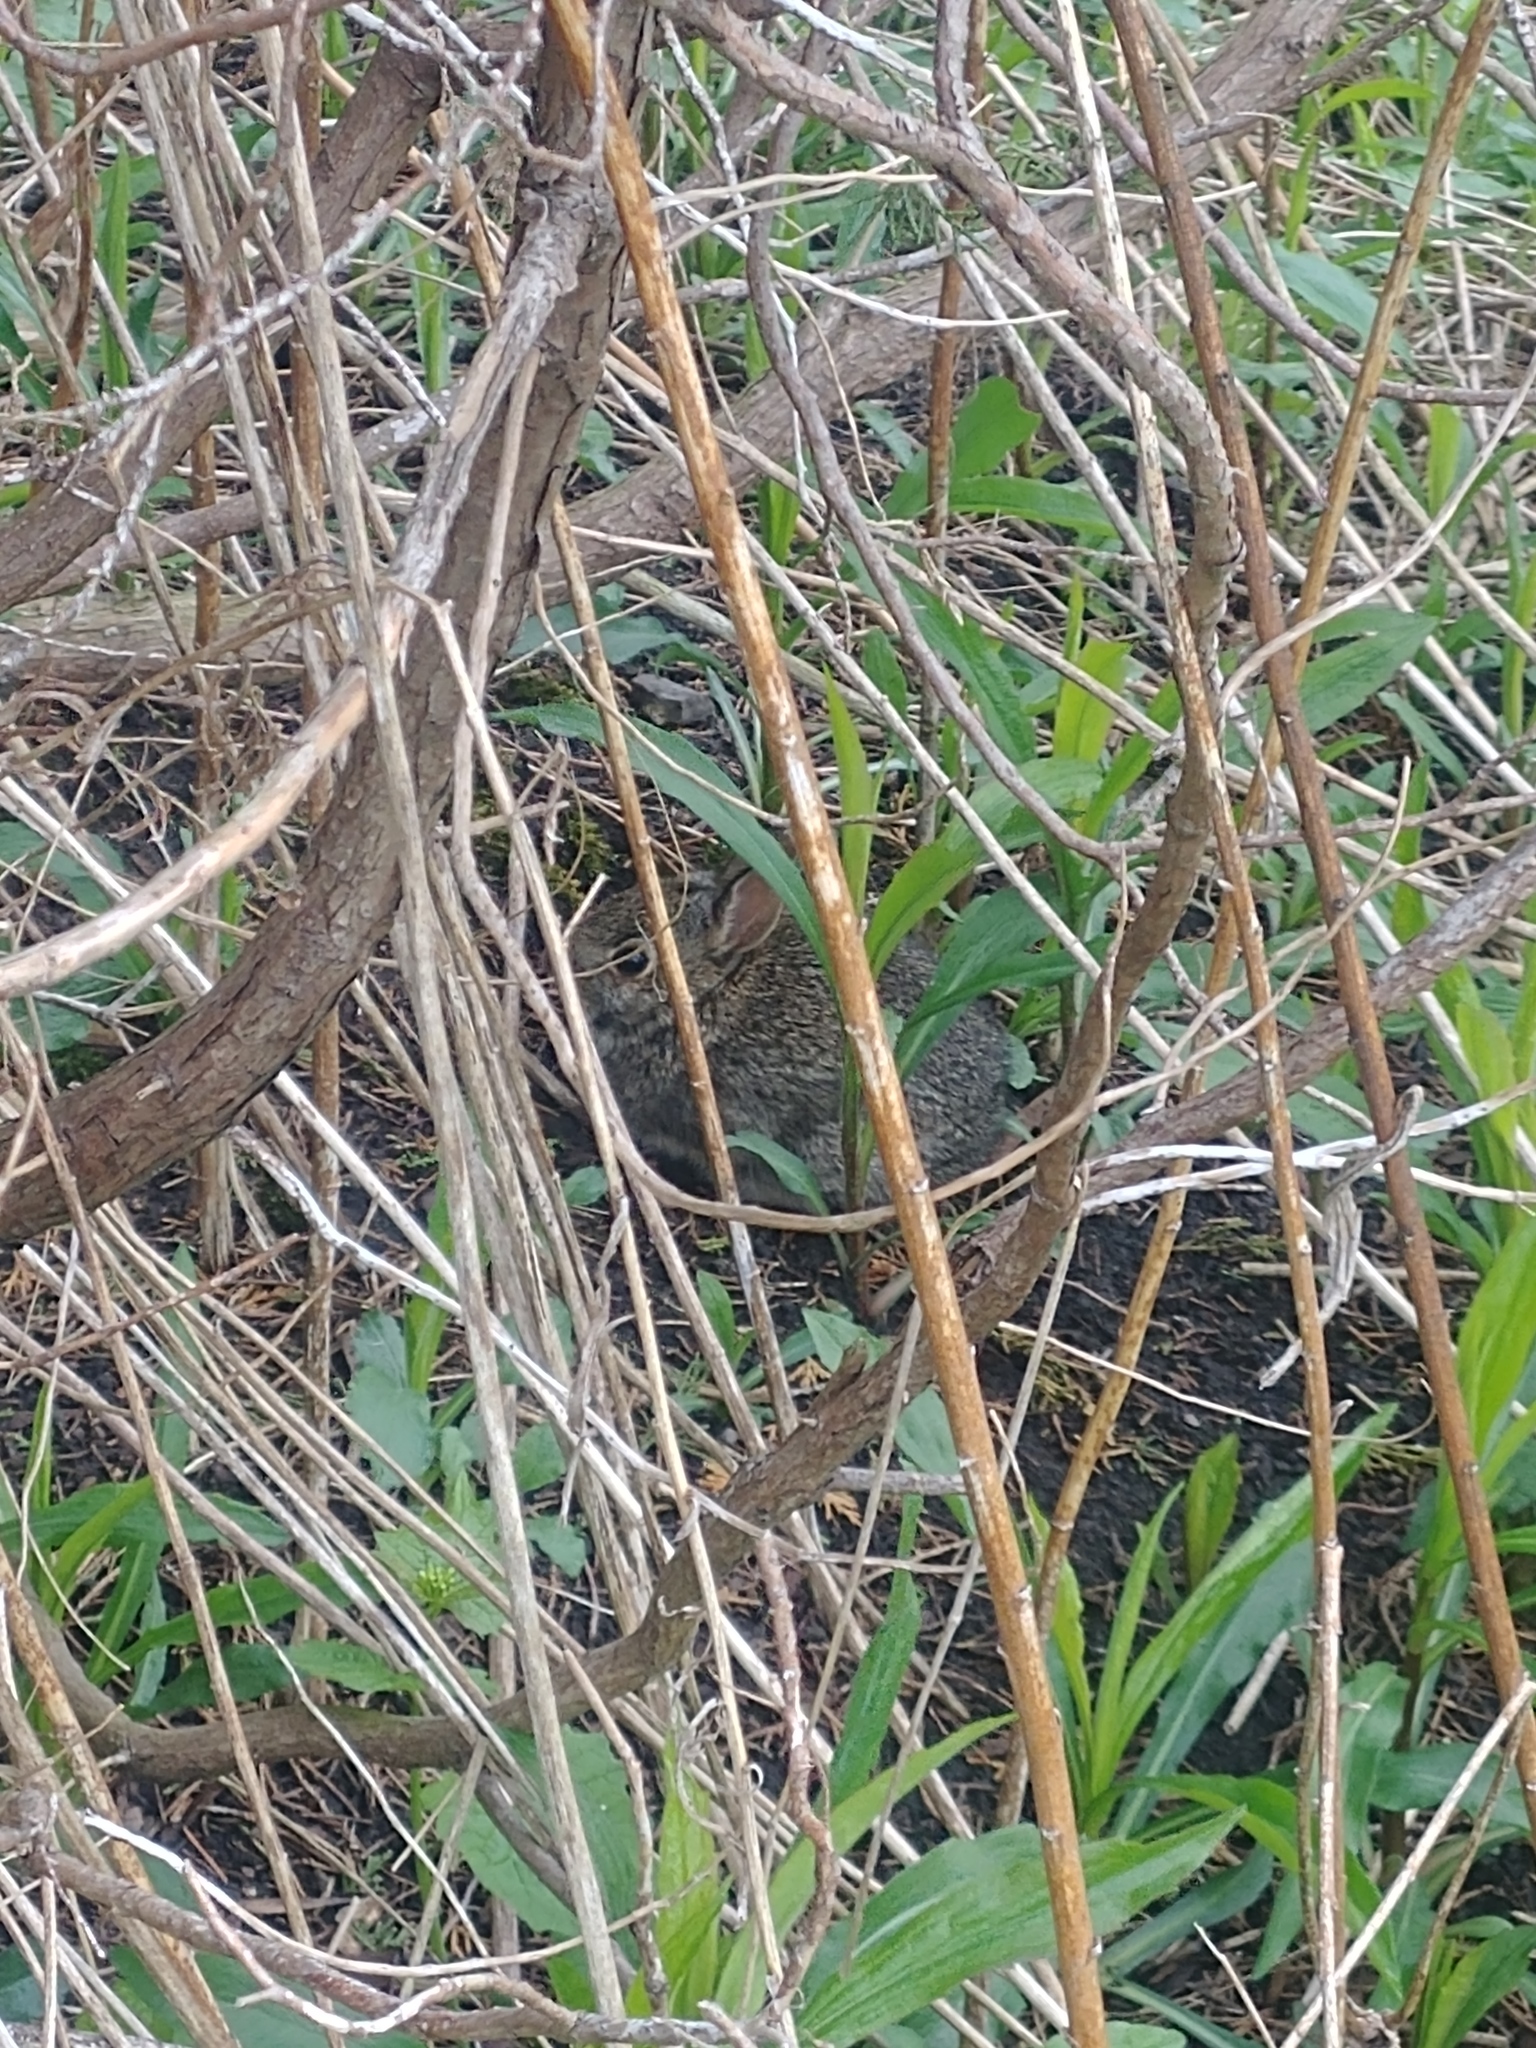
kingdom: Animalia
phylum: Chordata
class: Mammalia
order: Lagomorpha
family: Leporidae
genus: Sylvilagus
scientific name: Sylvilagus floridanus
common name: Eastern cottontail
